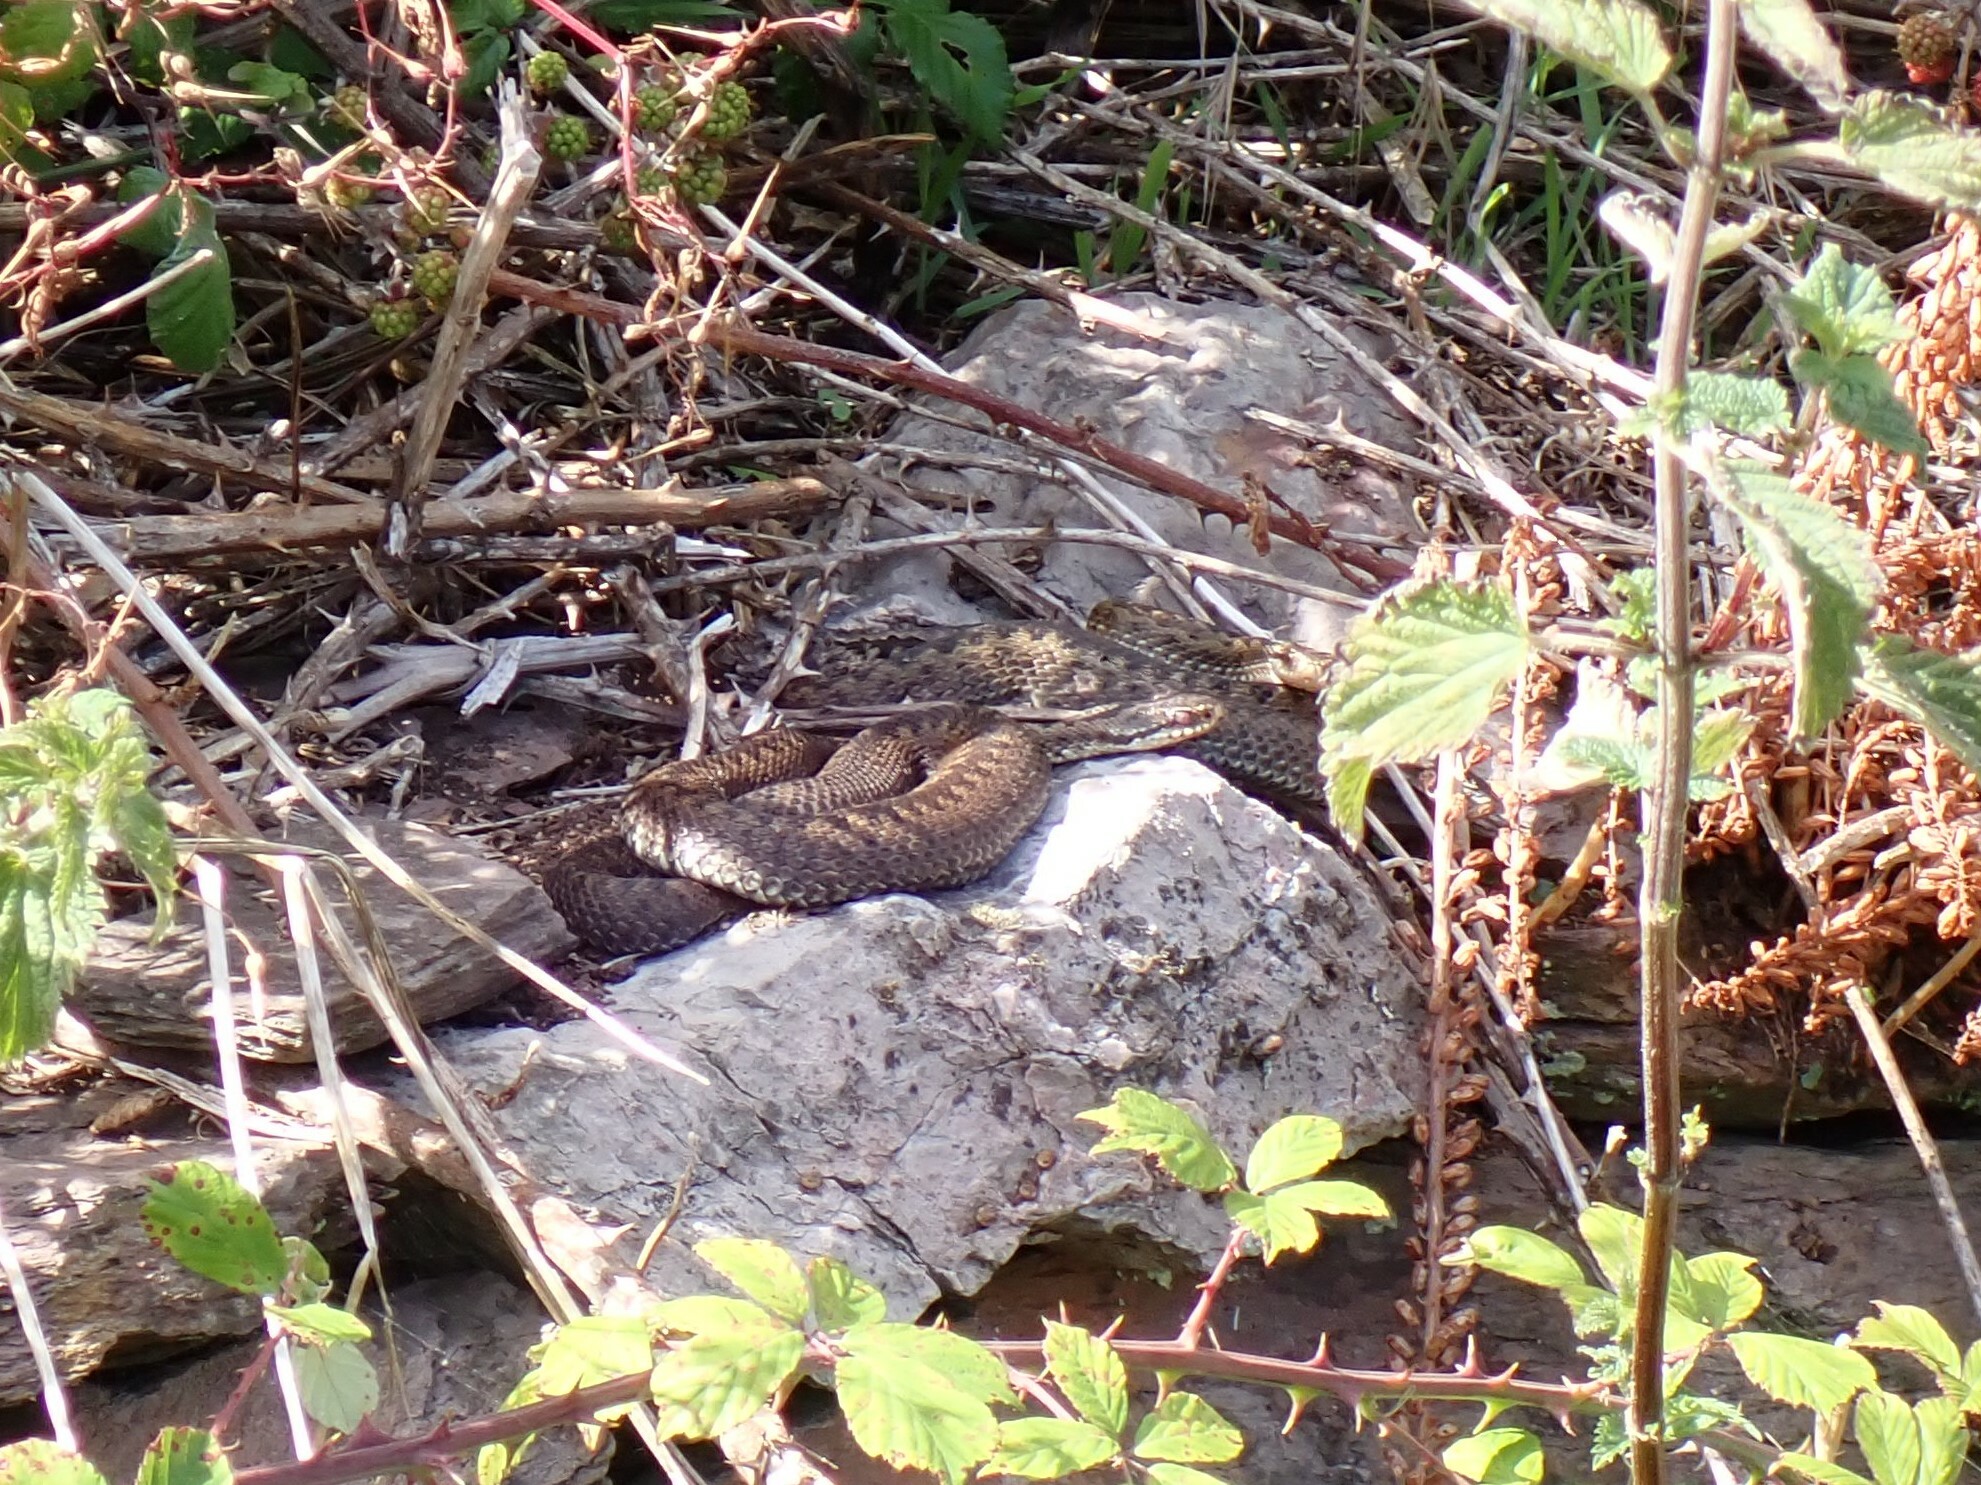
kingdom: Animalia
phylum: Chordata
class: Squamata
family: Viperidae
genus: Vipera
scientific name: Vipera berus
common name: Adder
